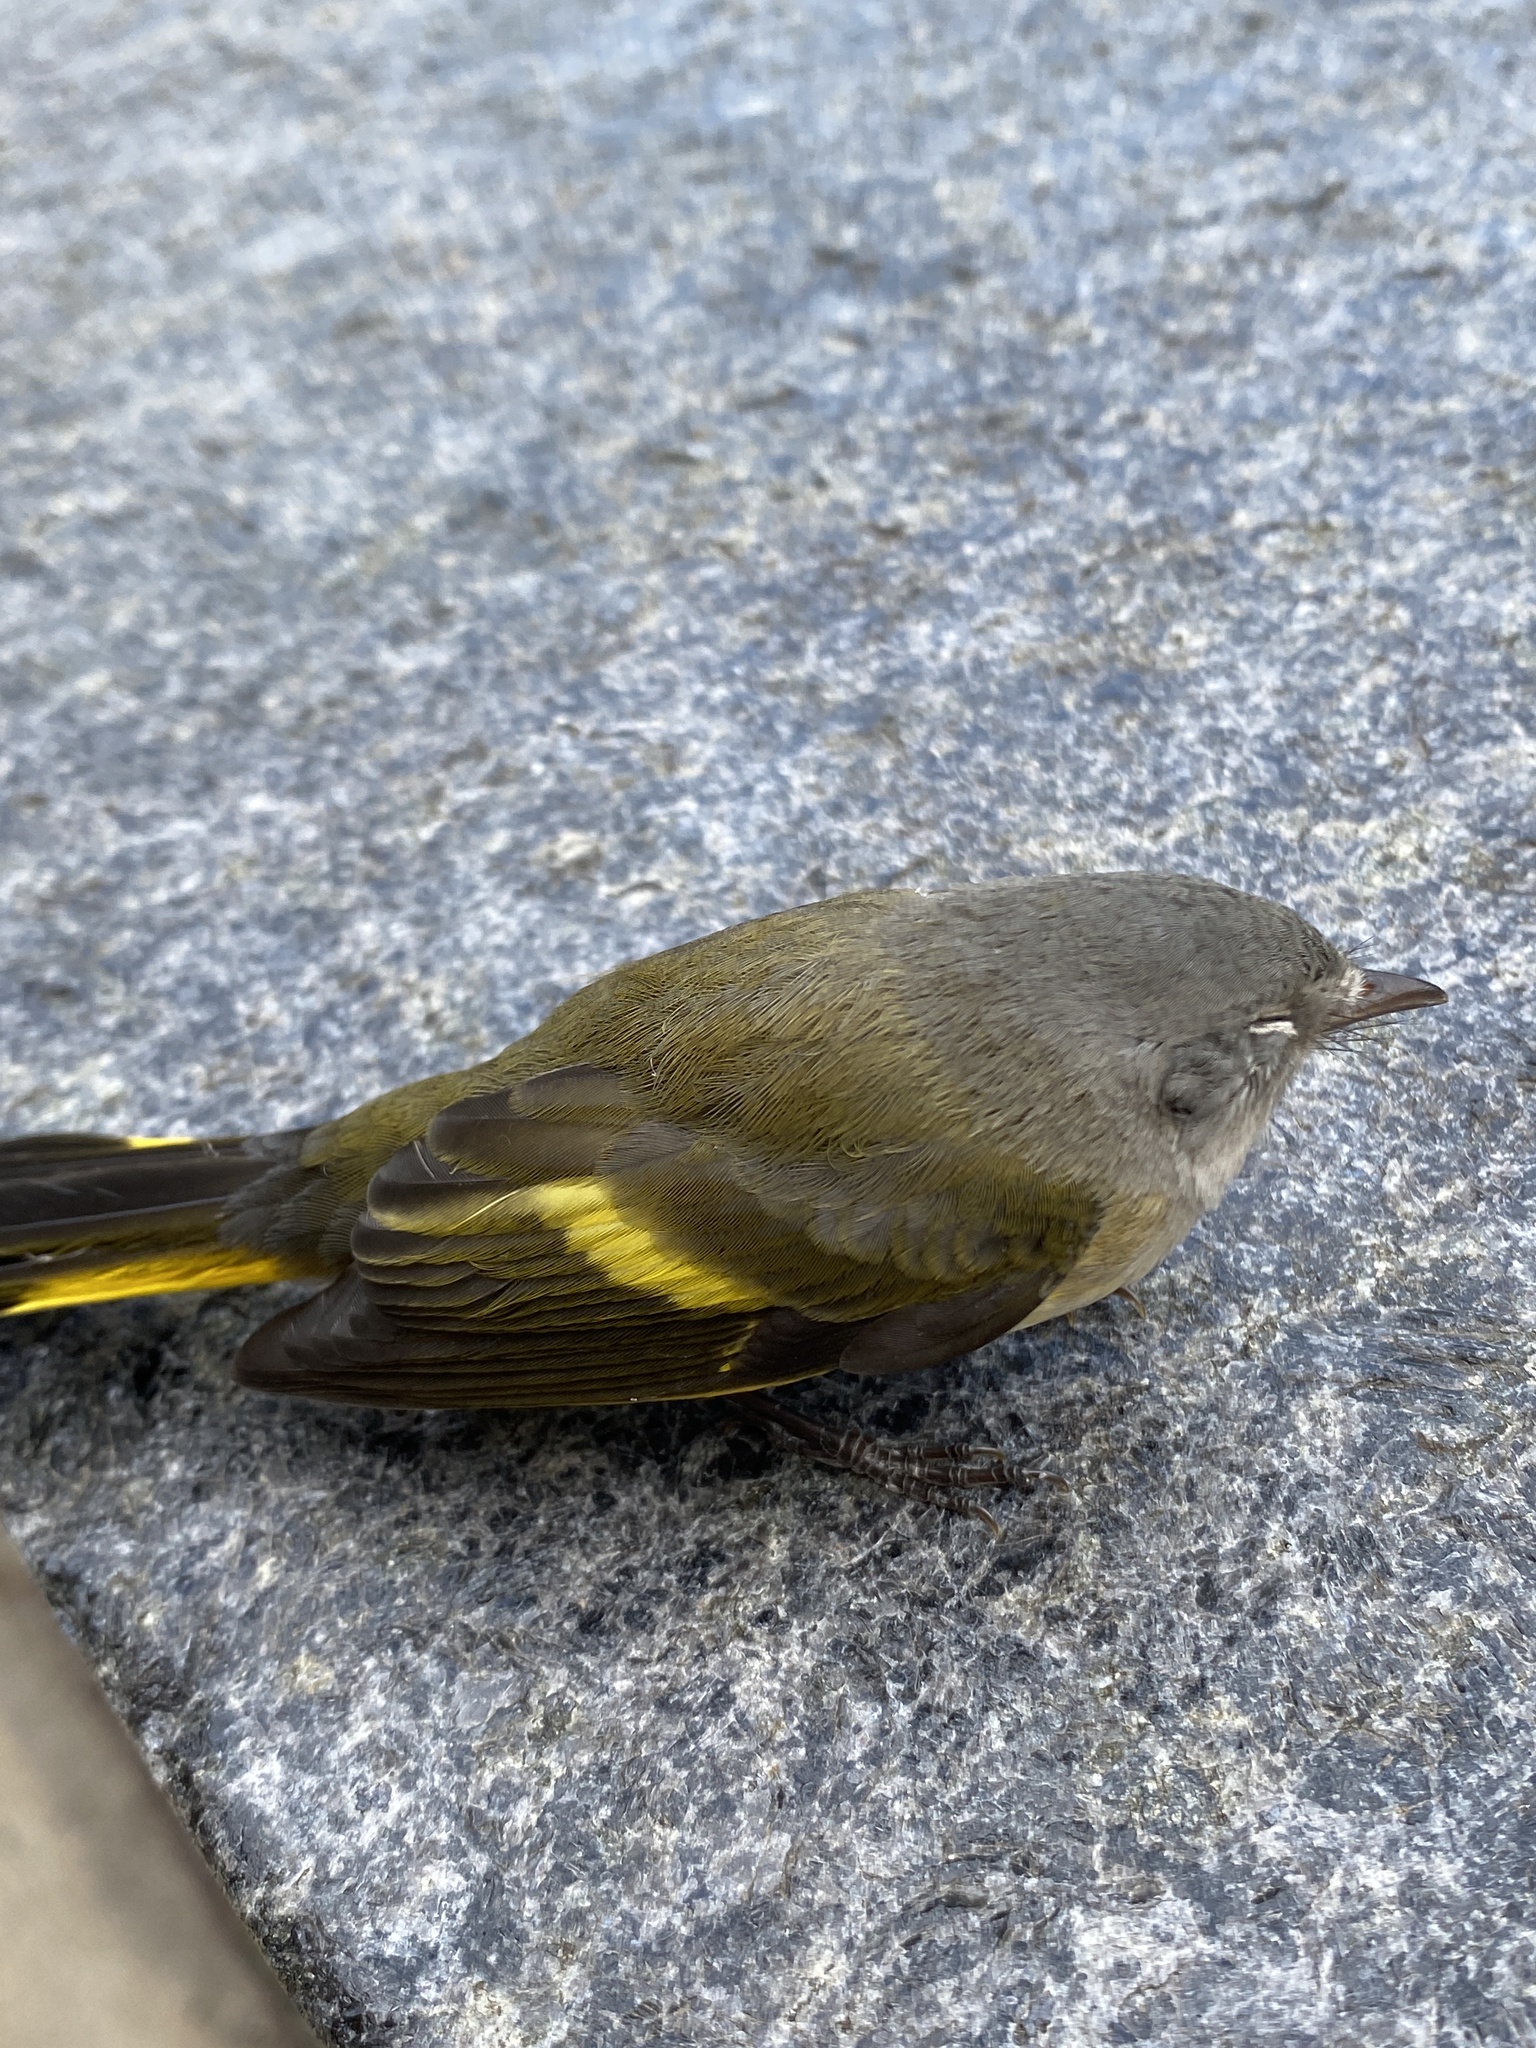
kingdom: Animalia
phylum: Chordata
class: Aves
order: Passeriformes
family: Parulidae
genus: Setophaga
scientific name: Setophaga ruticilla
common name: American redstart
